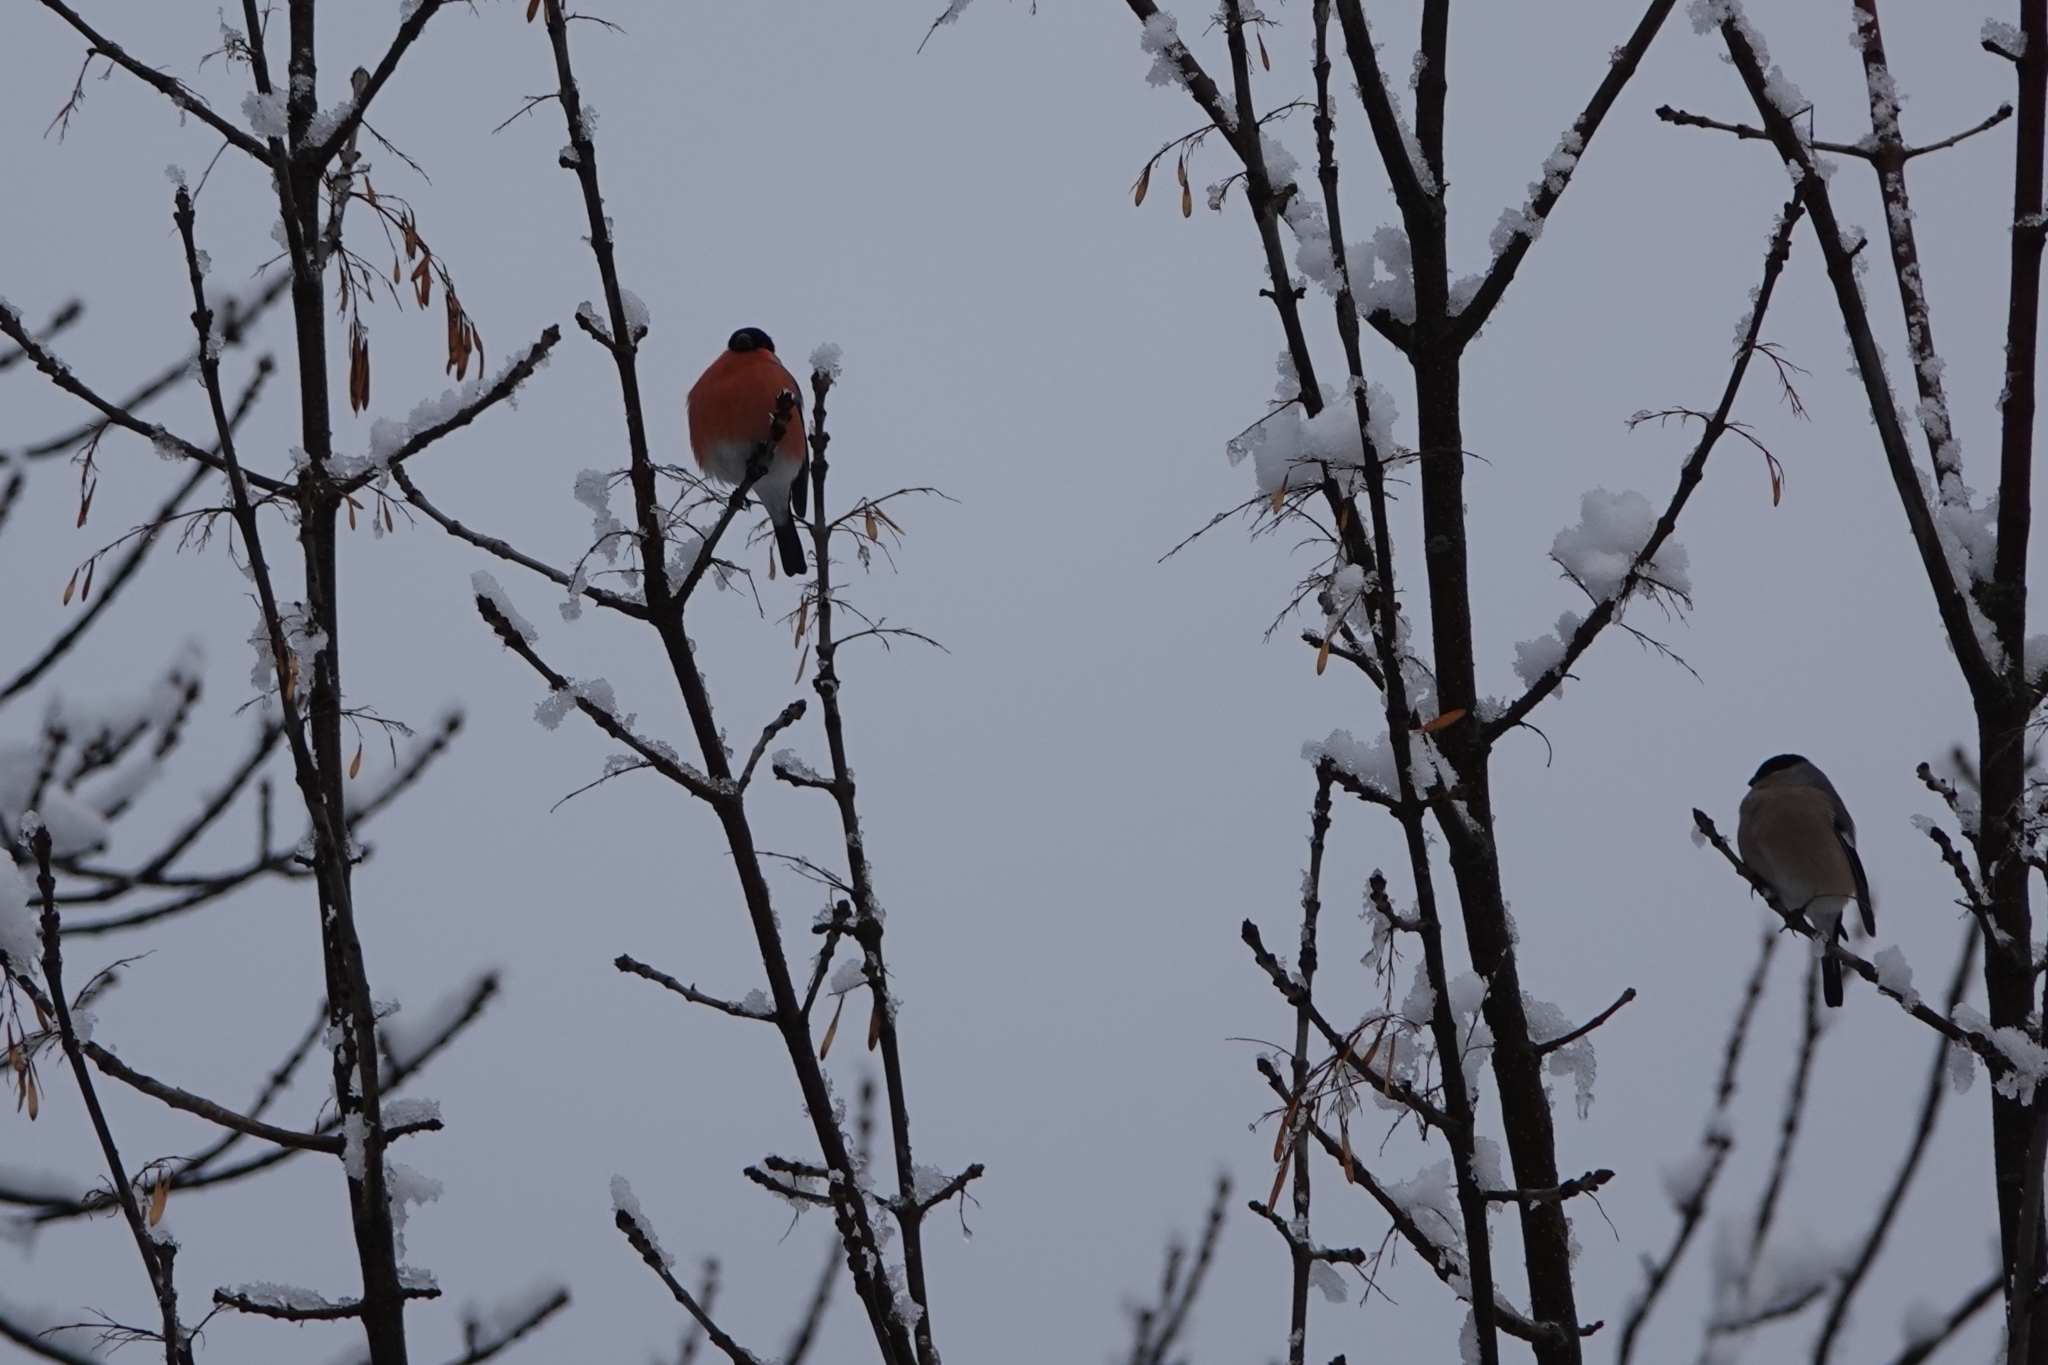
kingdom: Animalia
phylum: Chordata
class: Aves
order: Passeriformes
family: Fringillidae
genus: Pyrrhula
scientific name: Pyrrhula pyrrhula
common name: Eurasian bullfinch
